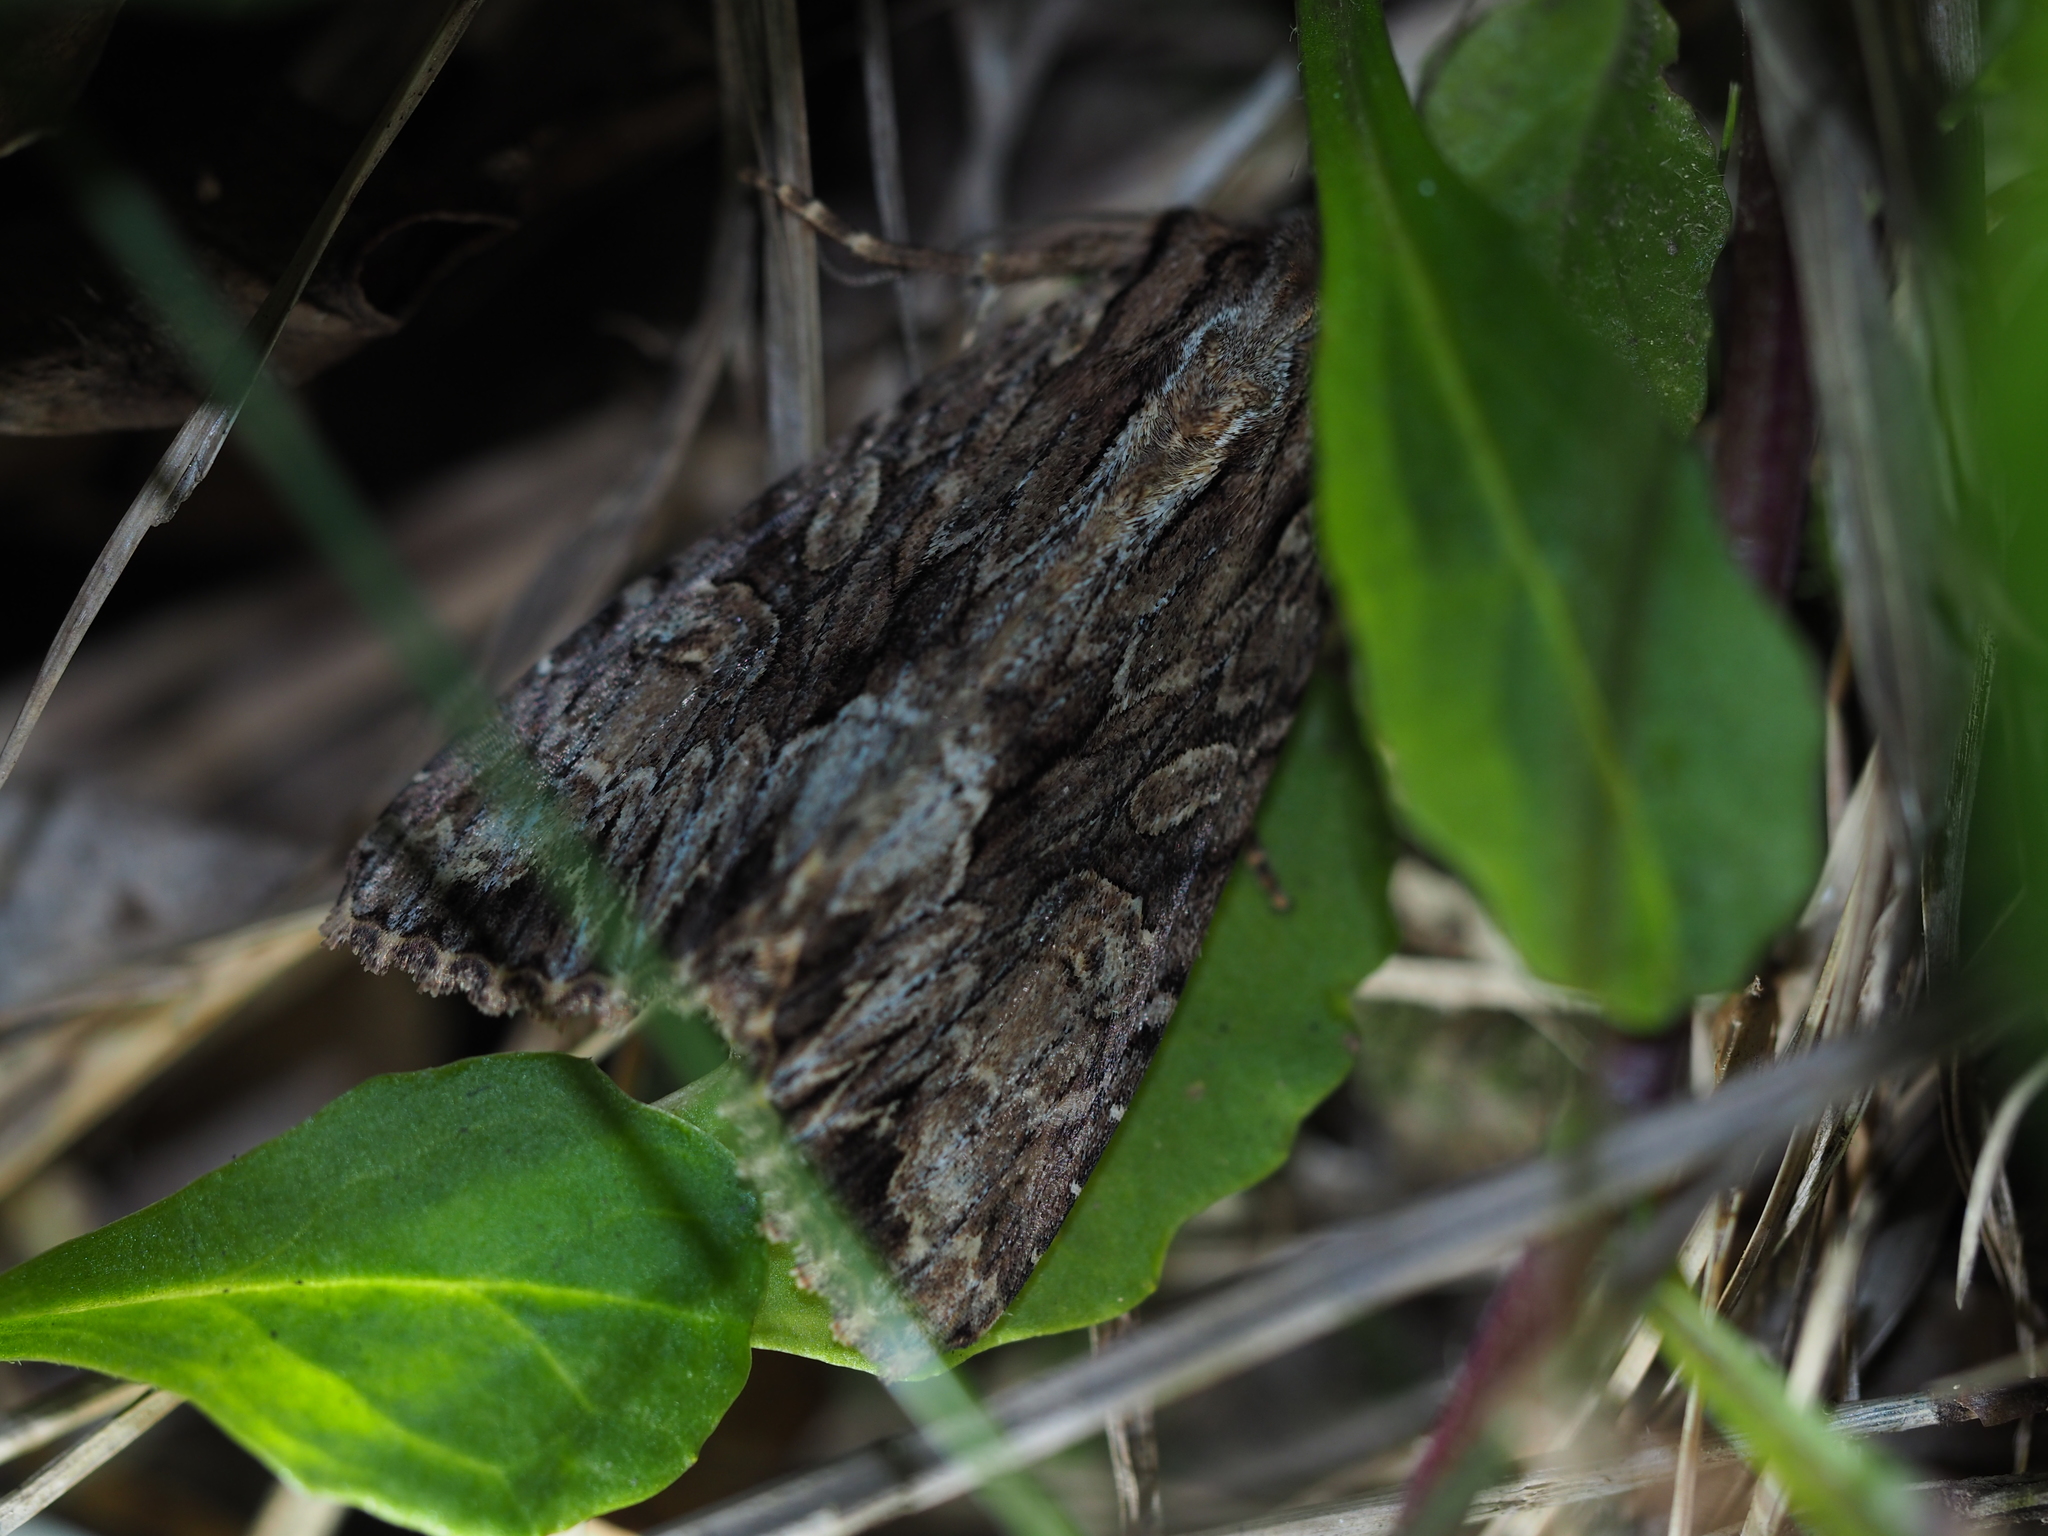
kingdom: Animalia
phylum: Arthropoda
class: Insecta
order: Lepidoptera
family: Noctuidae
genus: Apamea
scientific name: Apamea monoglypha
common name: Dark arches
